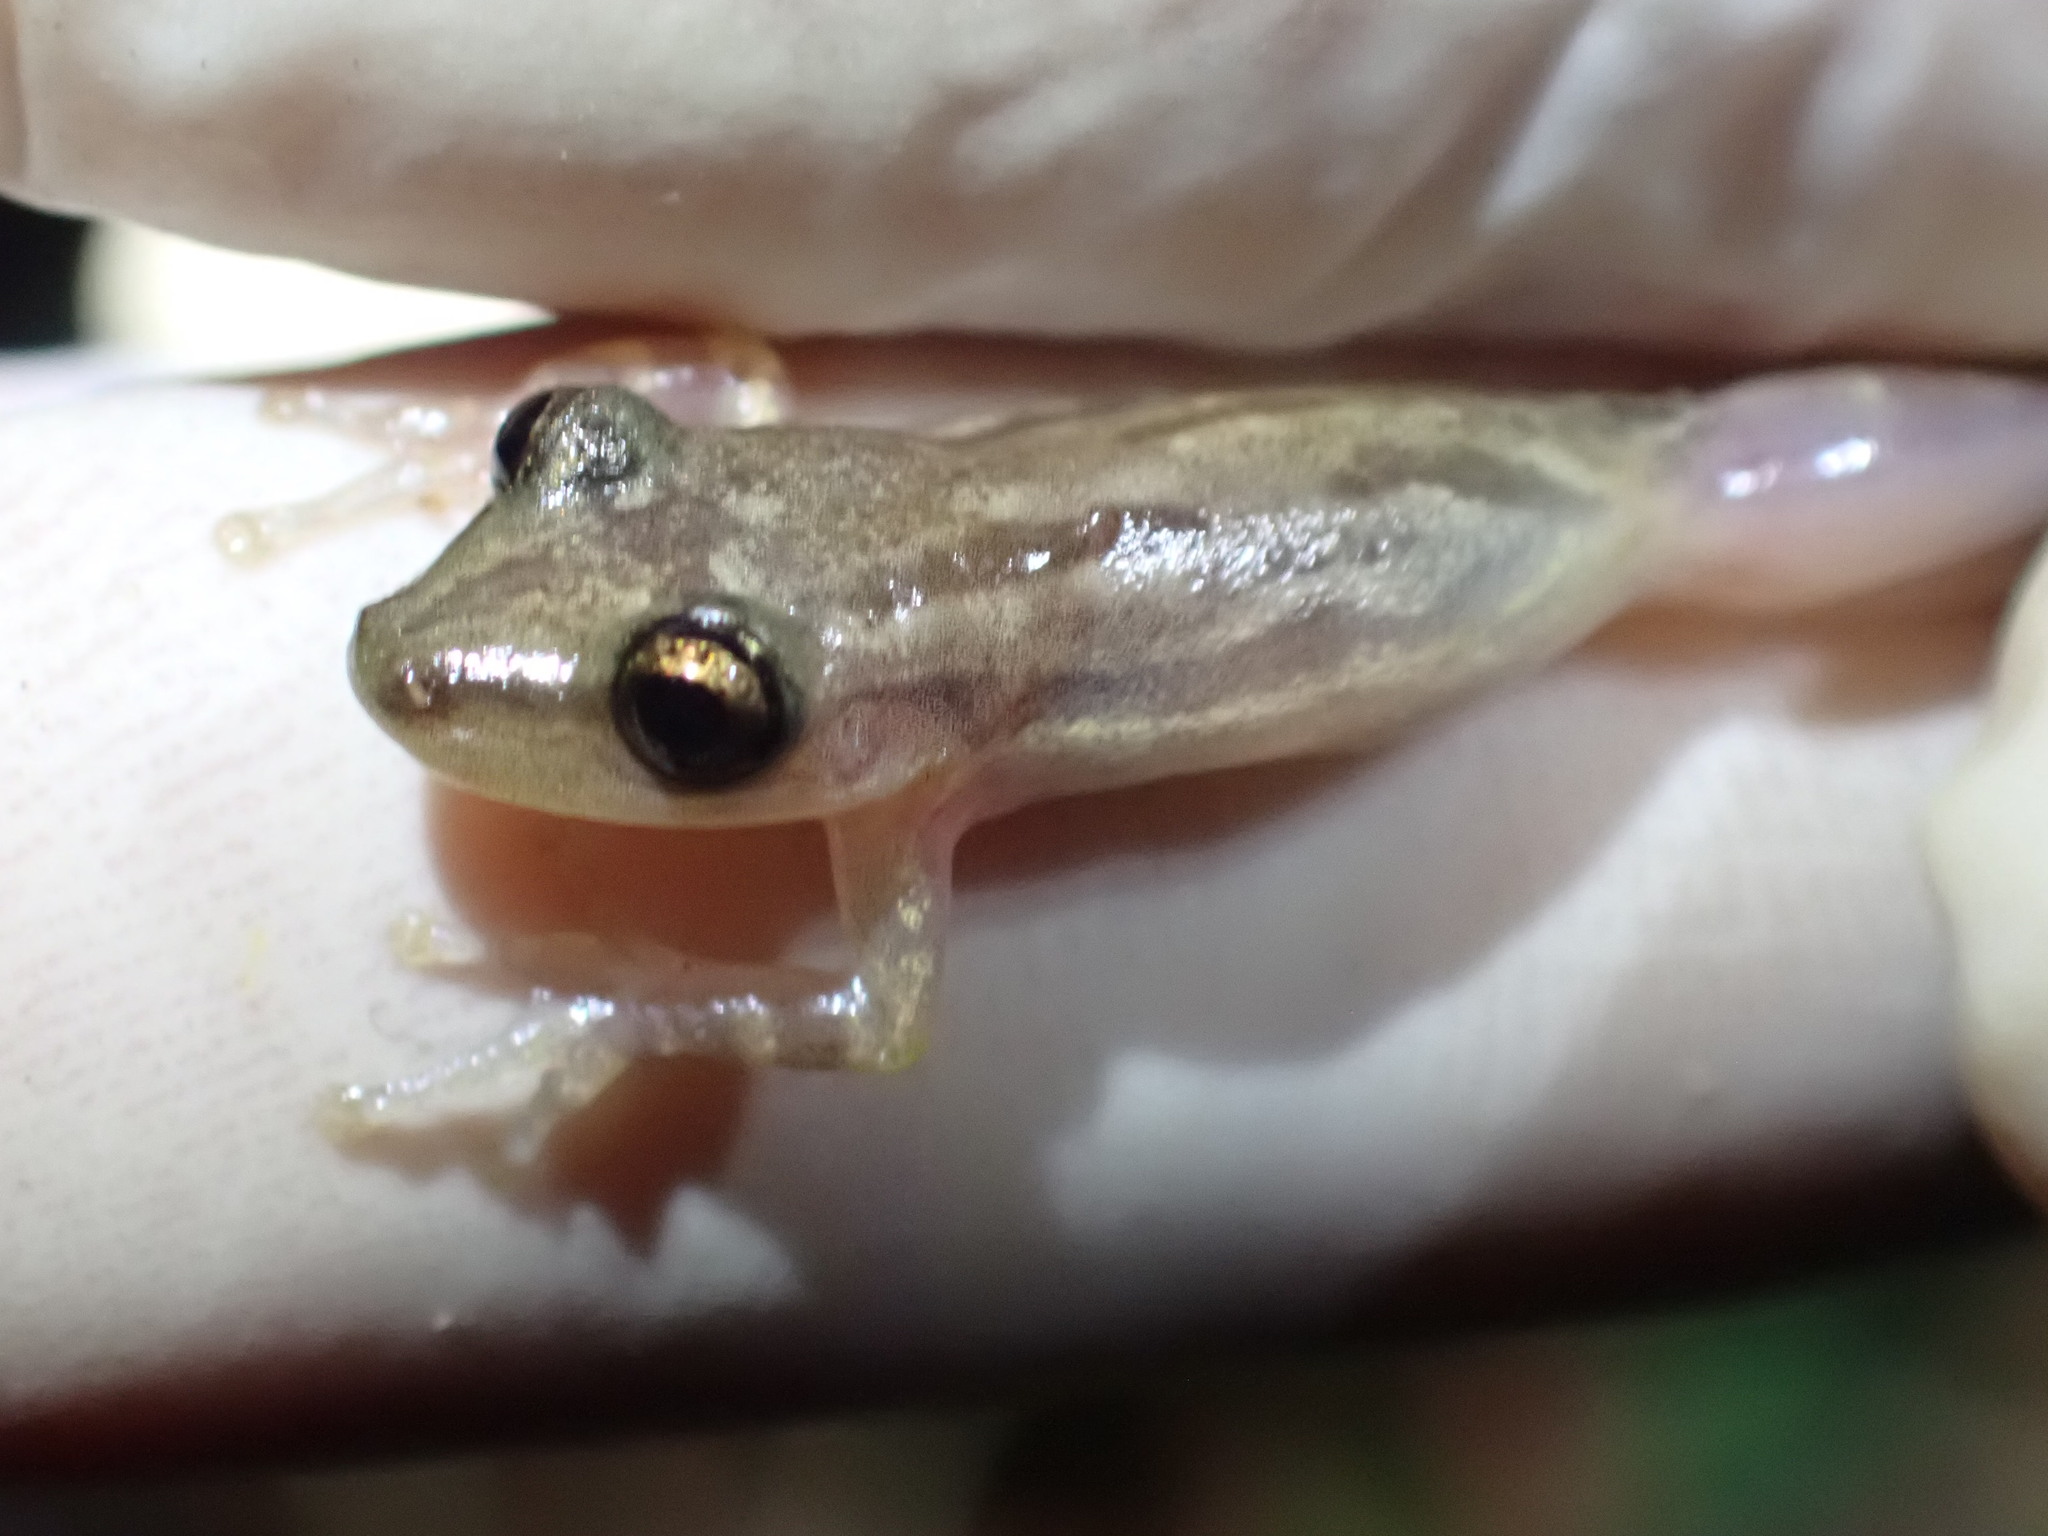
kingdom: Animalia
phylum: Chordata
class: Amphibia
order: Anura
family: Hylidae
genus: Scinax
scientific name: Scinax staufferi
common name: Stauffer's long-nosed treefrog
